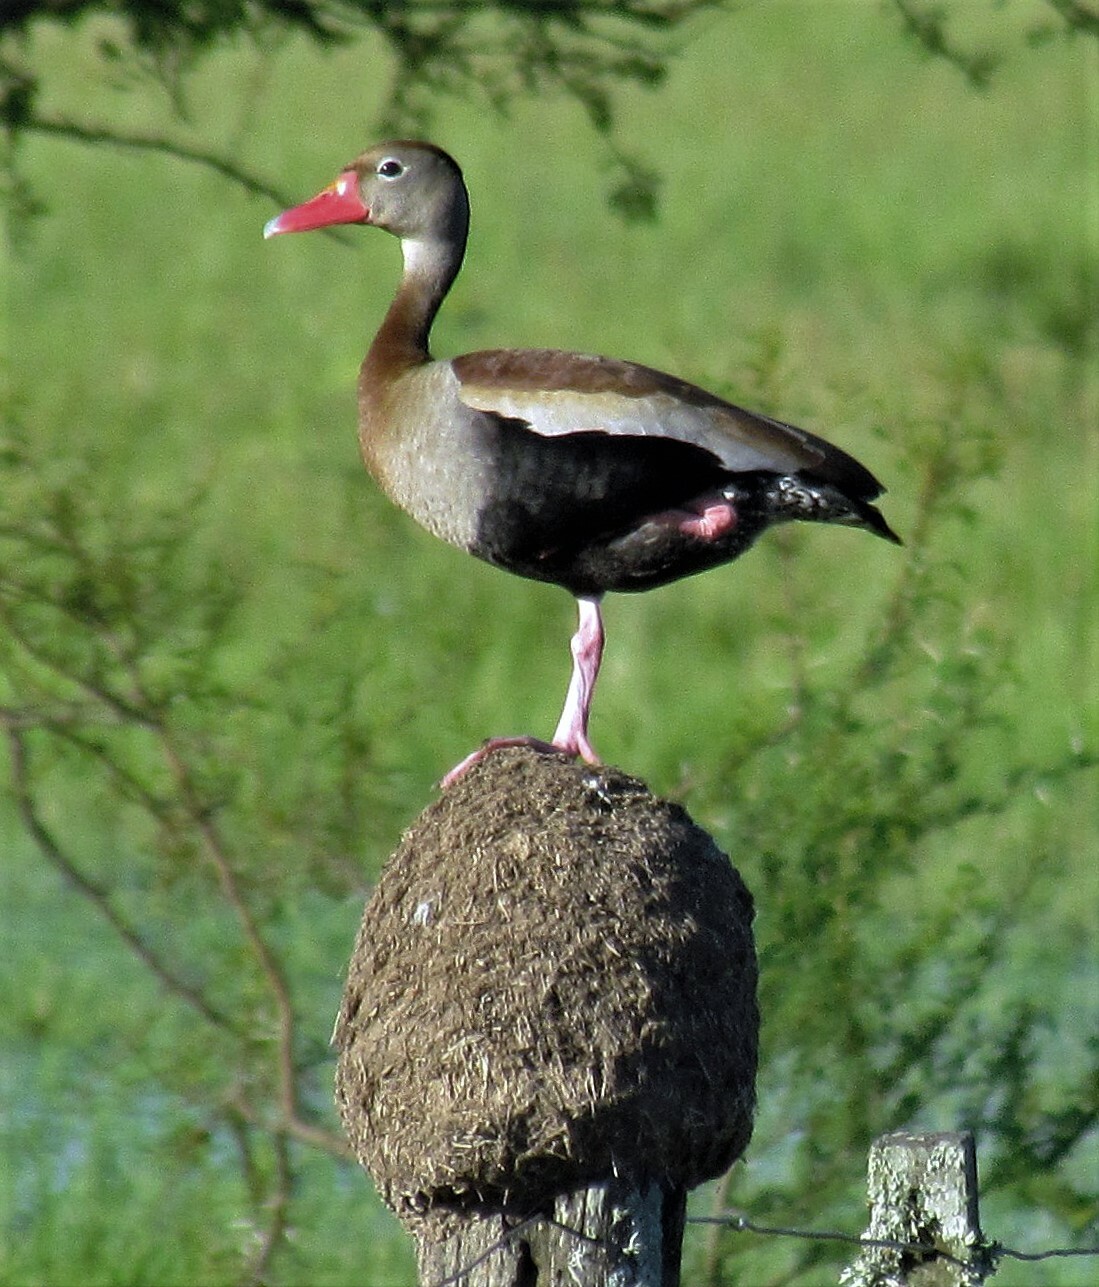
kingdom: Animalia
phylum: Chordata
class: Aves
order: Anseriformes
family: Anatidae
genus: Dendrocygna
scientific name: Dendrocygna autumnalis
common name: Black-bellied whistling duck
